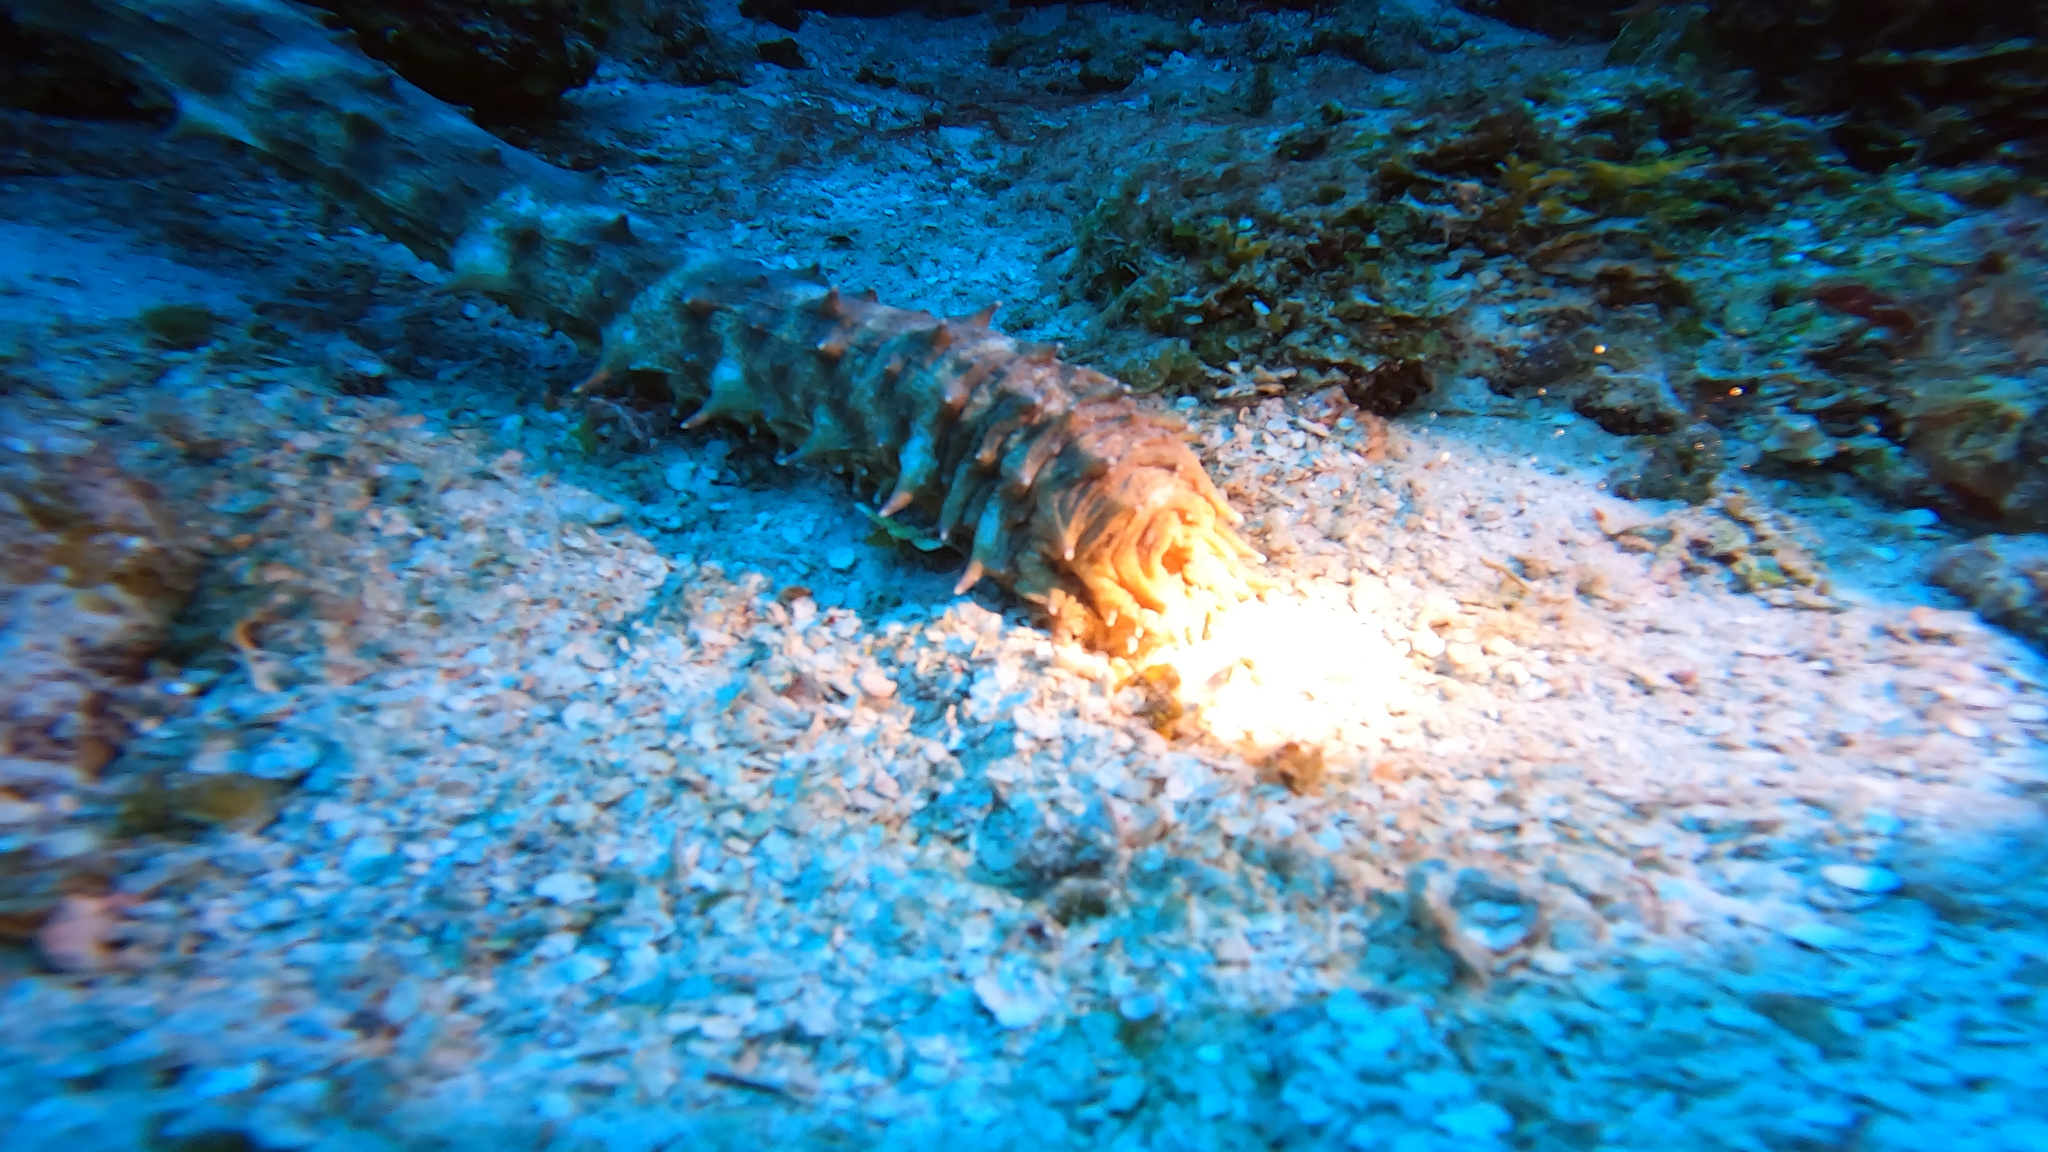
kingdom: Animalia
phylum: Echinodermata
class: Holothuroidea
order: Holothuriida
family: Holothuriidae
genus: Holothuria
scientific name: Holothuria thomasi
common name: Tiger tail sea cocumber
